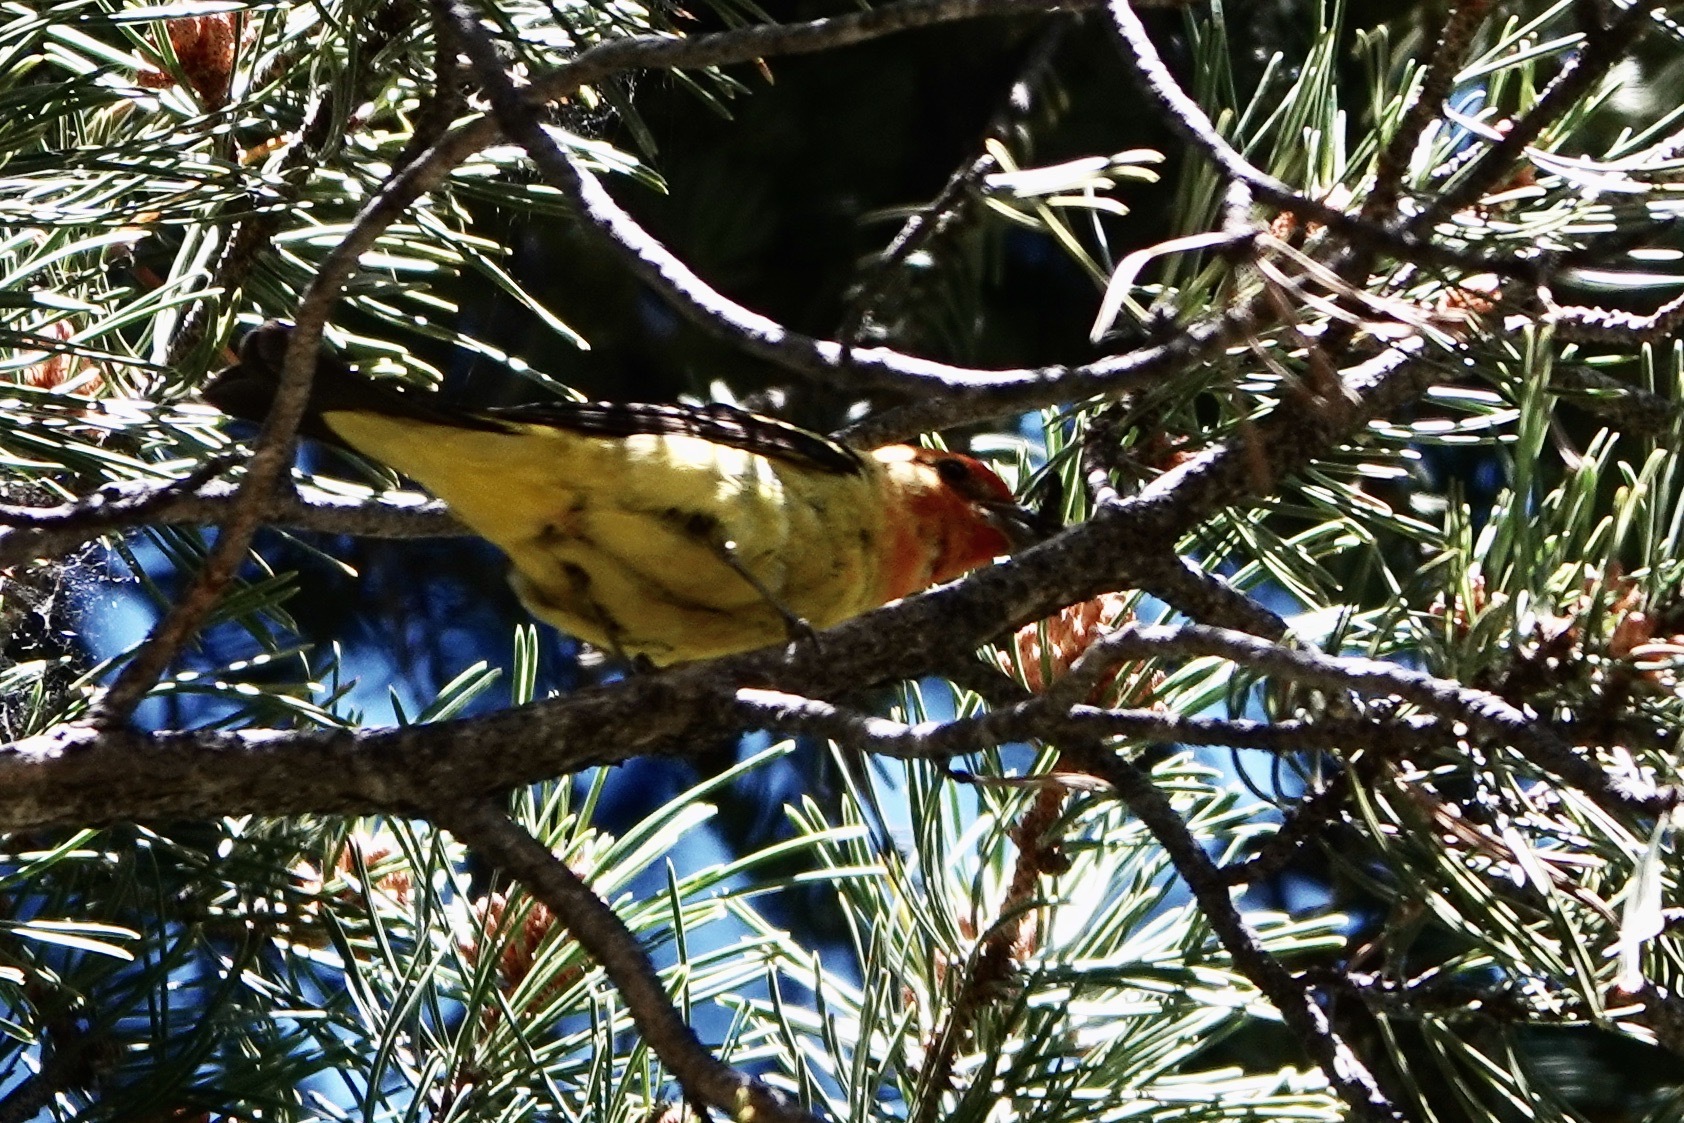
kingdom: Animalia
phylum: Chordata
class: Aves
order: Passeriformes
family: Cardinalidae
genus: Piranga
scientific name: Piranga ludoviciana
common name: Western tanager
